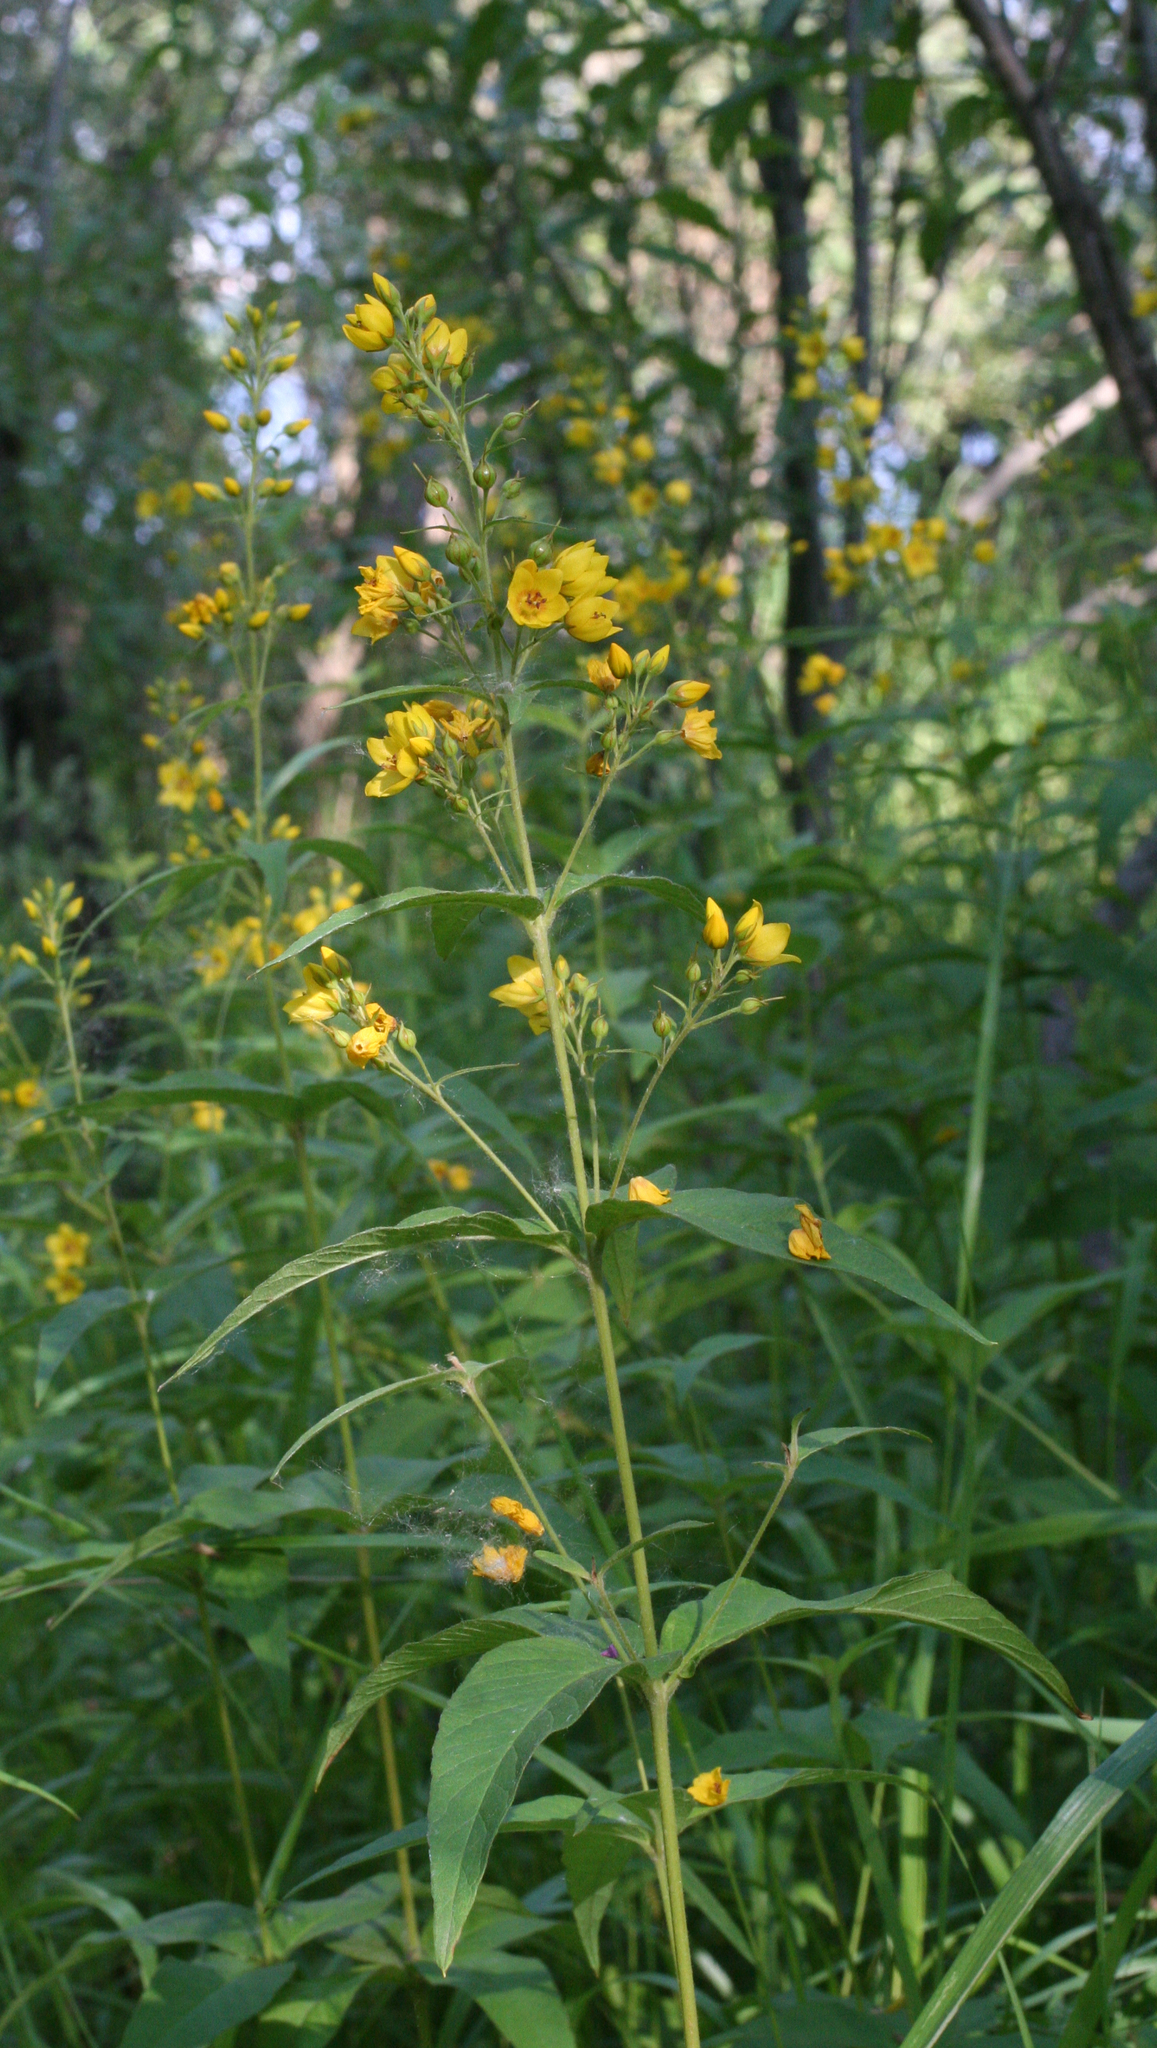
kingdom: Plantae
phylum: Tracheophyta
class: Magnoliopsida
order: Ericales
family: Primulaceae
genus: Lysimachia
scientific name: Lysimachia vulgaris
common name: Yellow loosestrife
